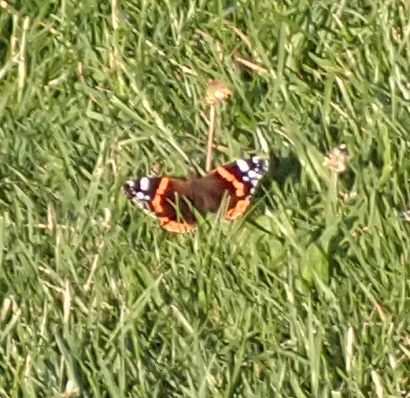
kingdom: Animalia
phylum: Arthropoda
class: Insecta
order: Lepidoptera
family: Nymphalidae
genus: Vanessa
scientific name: Vanessa atalanta
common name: Red admiral
